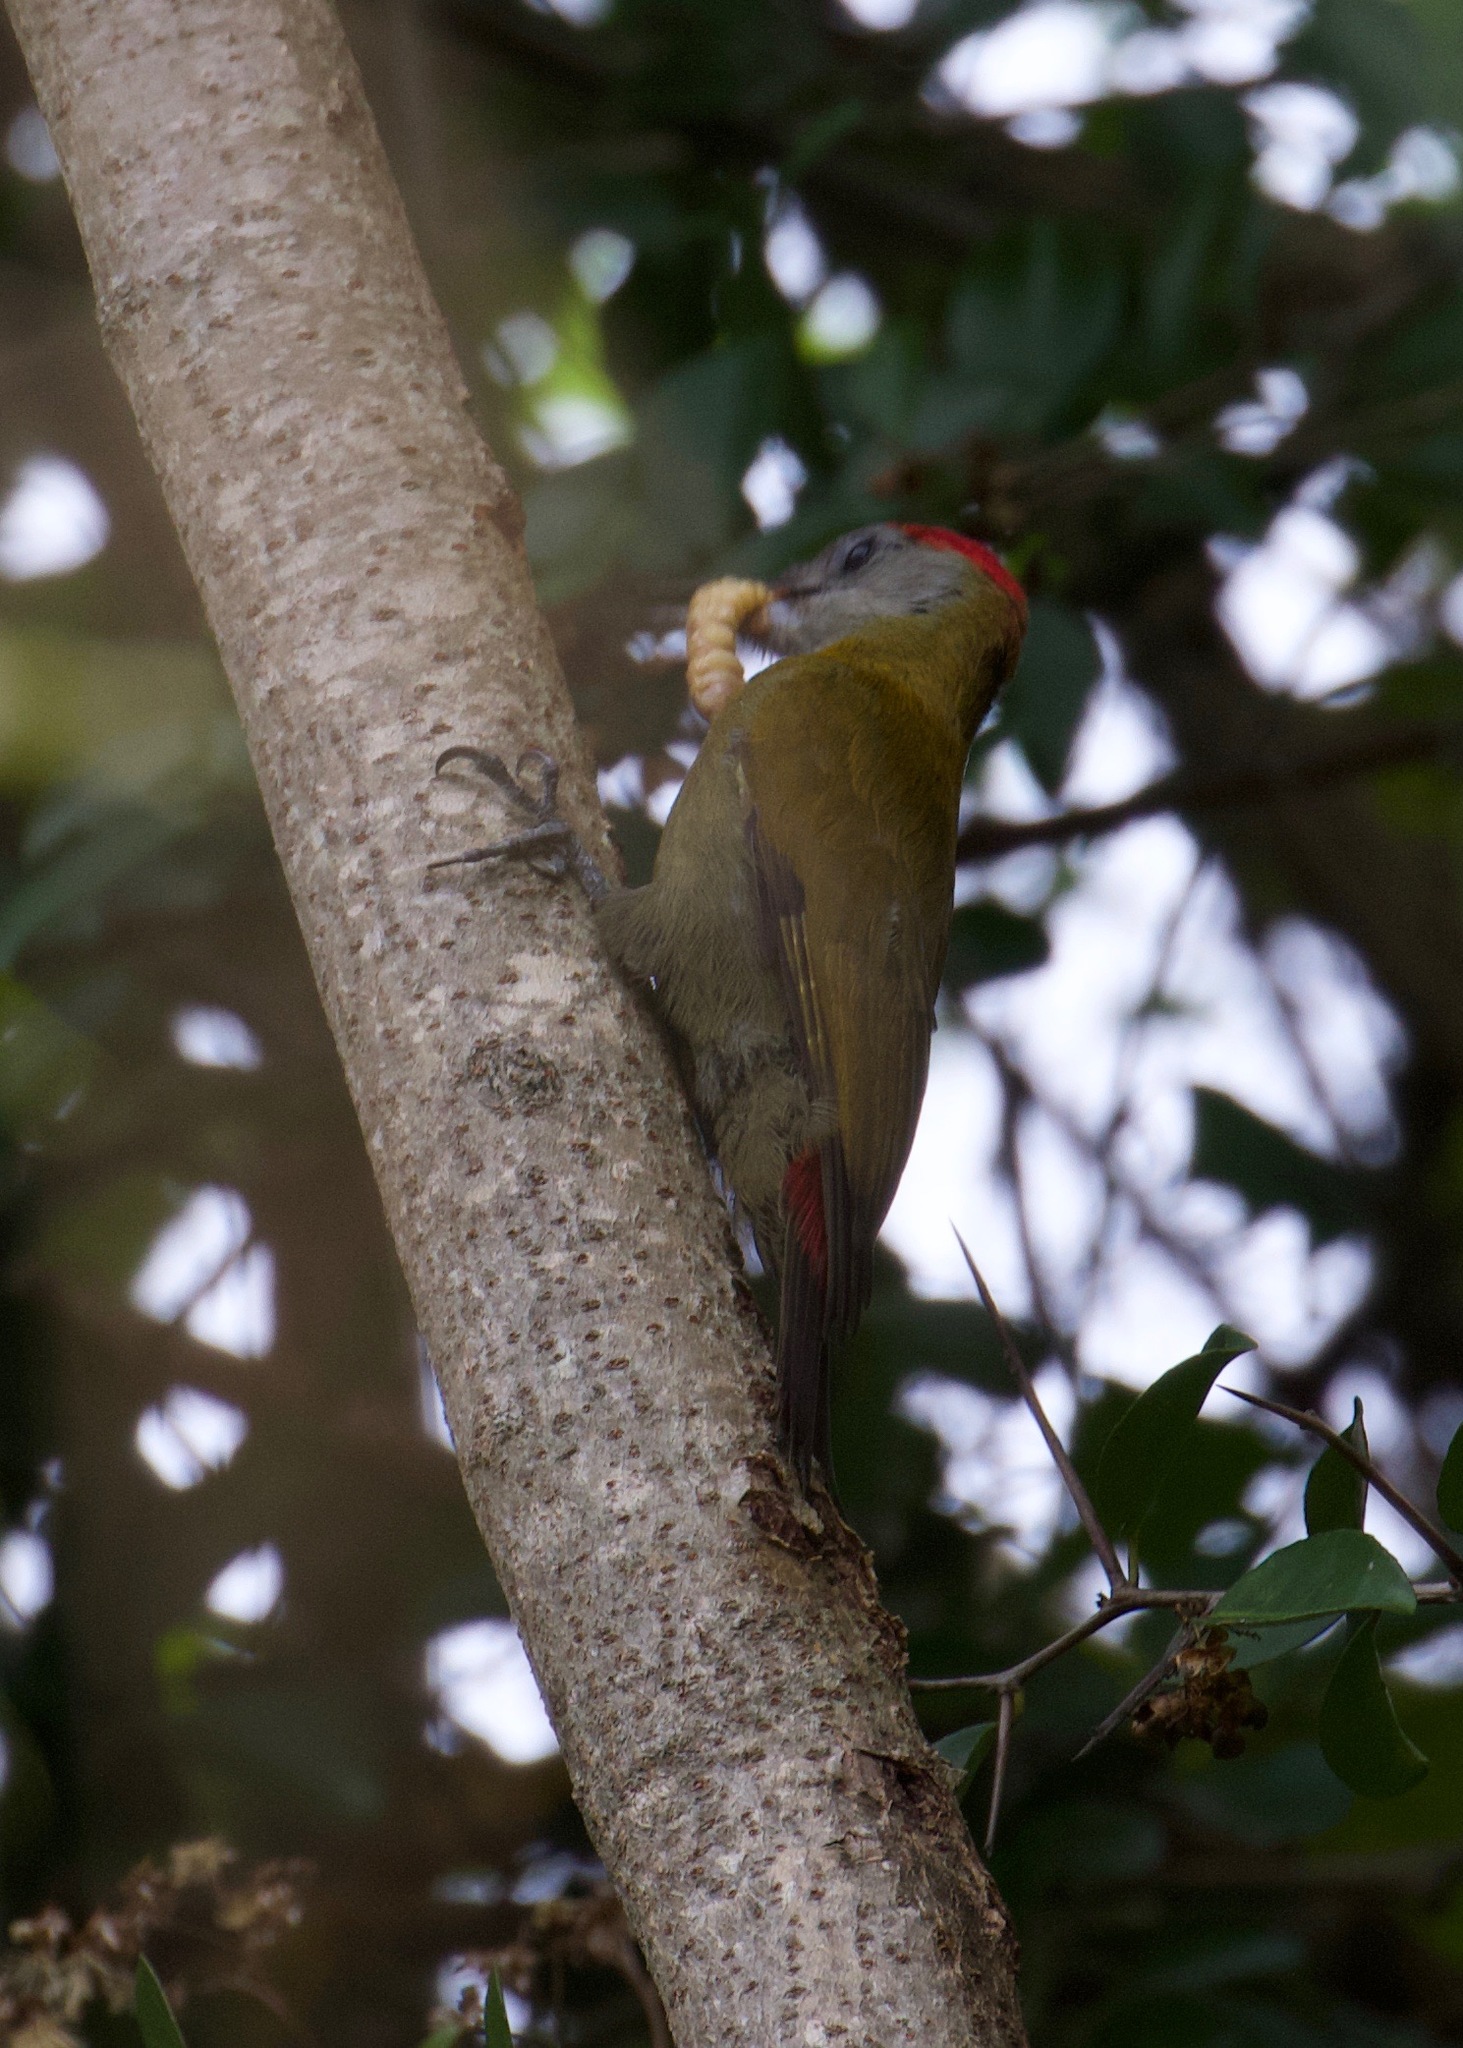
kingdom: Animalia
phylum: Chordata
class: Aves
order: Piciformes
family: Picidae
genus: Dendropicos
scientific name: Dendropicos griseocephalus
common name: Olive woodpecker
